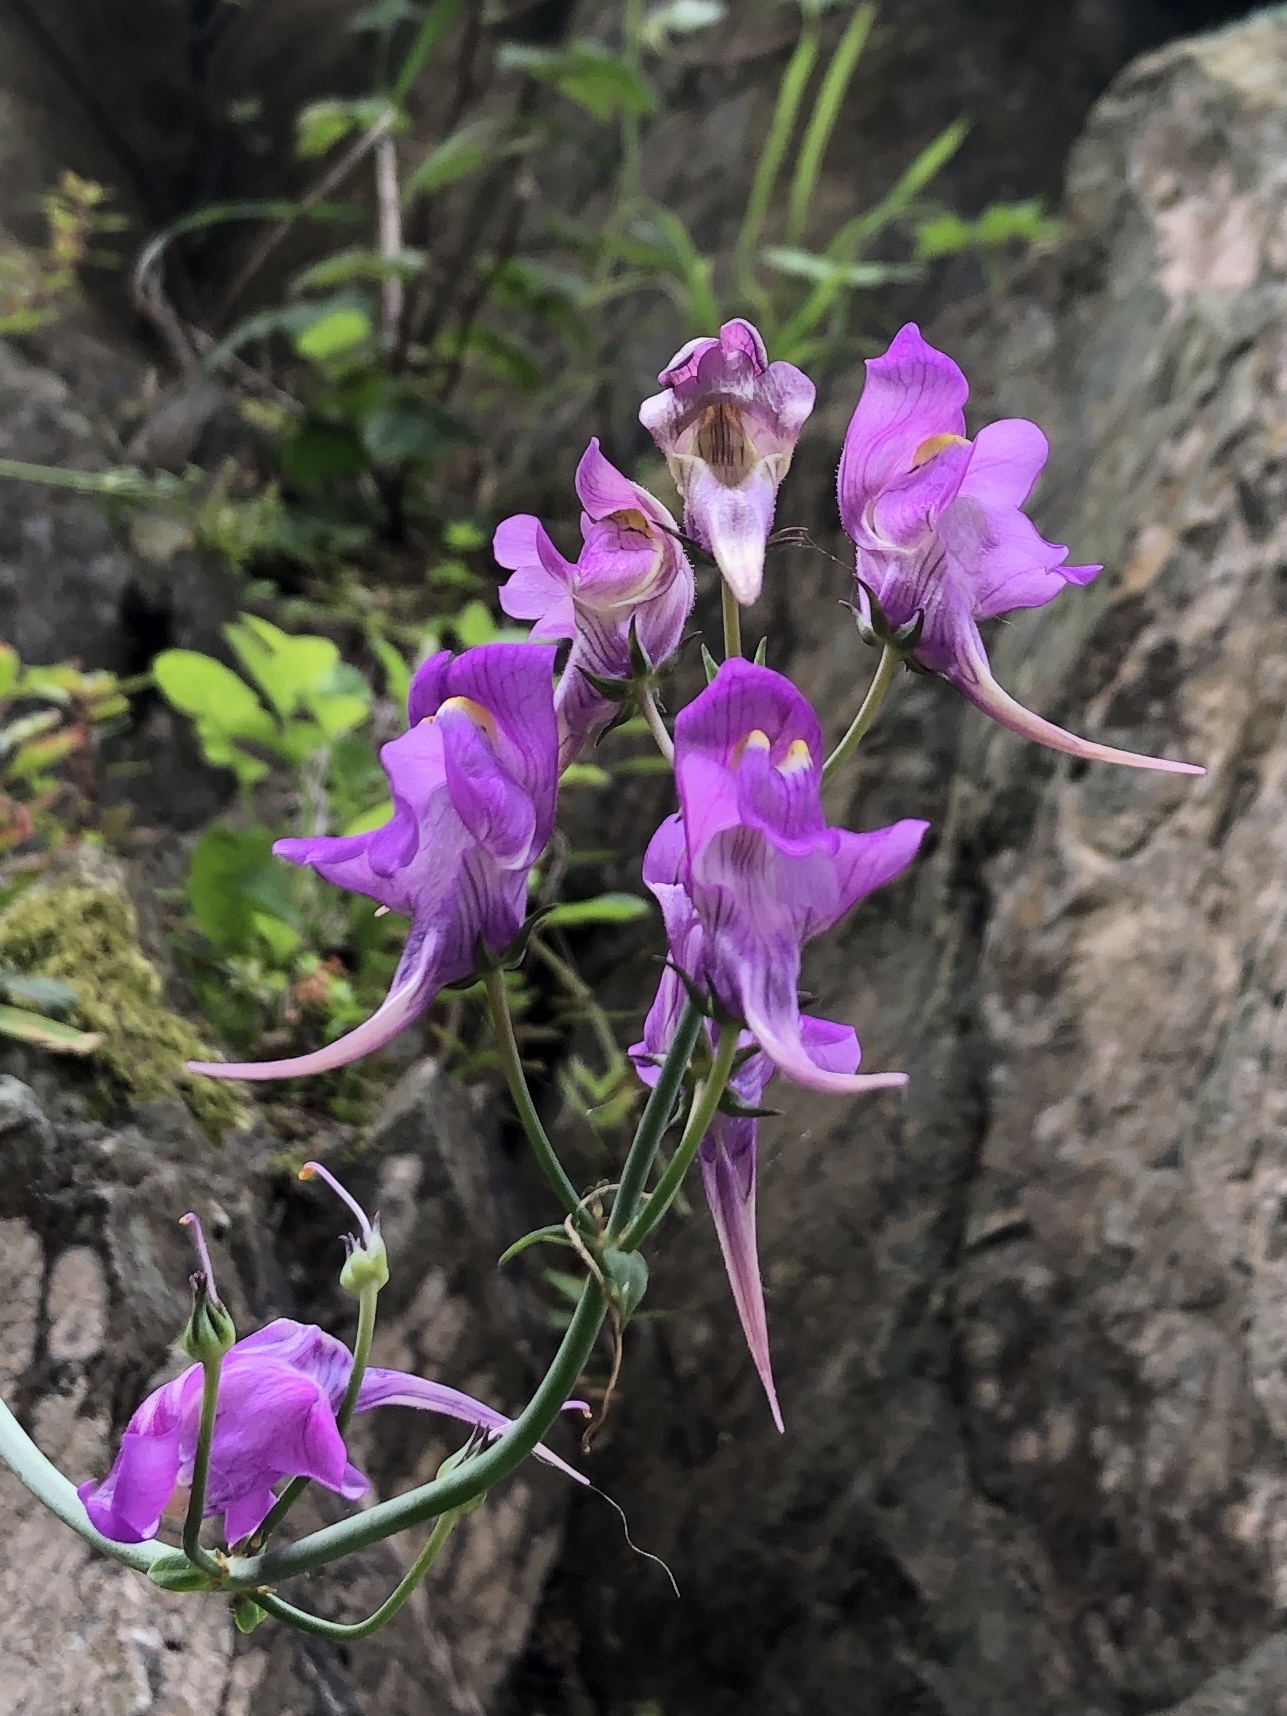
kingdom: Plantae
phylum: Tracheophyta
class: Magnoliopsida
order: Lamiales
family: Plantaginaceae
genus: Linaria
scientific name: Linaria triornithophora
